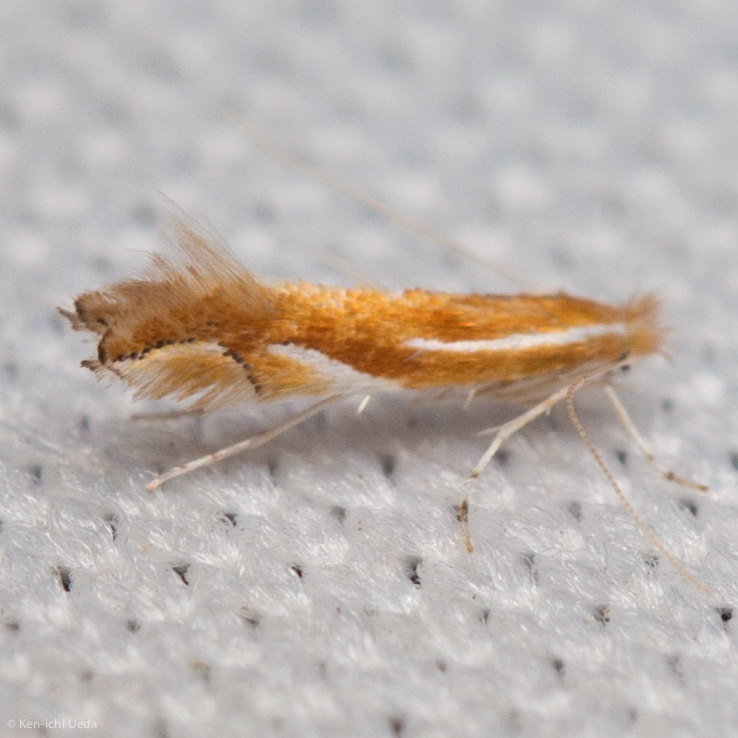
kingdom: Animalia
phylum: Arthropoda
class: Insecta
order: Lepidoptera
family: Gracillariidae
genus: Phyllonorycter
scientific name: Phyllonorycter sandraella
